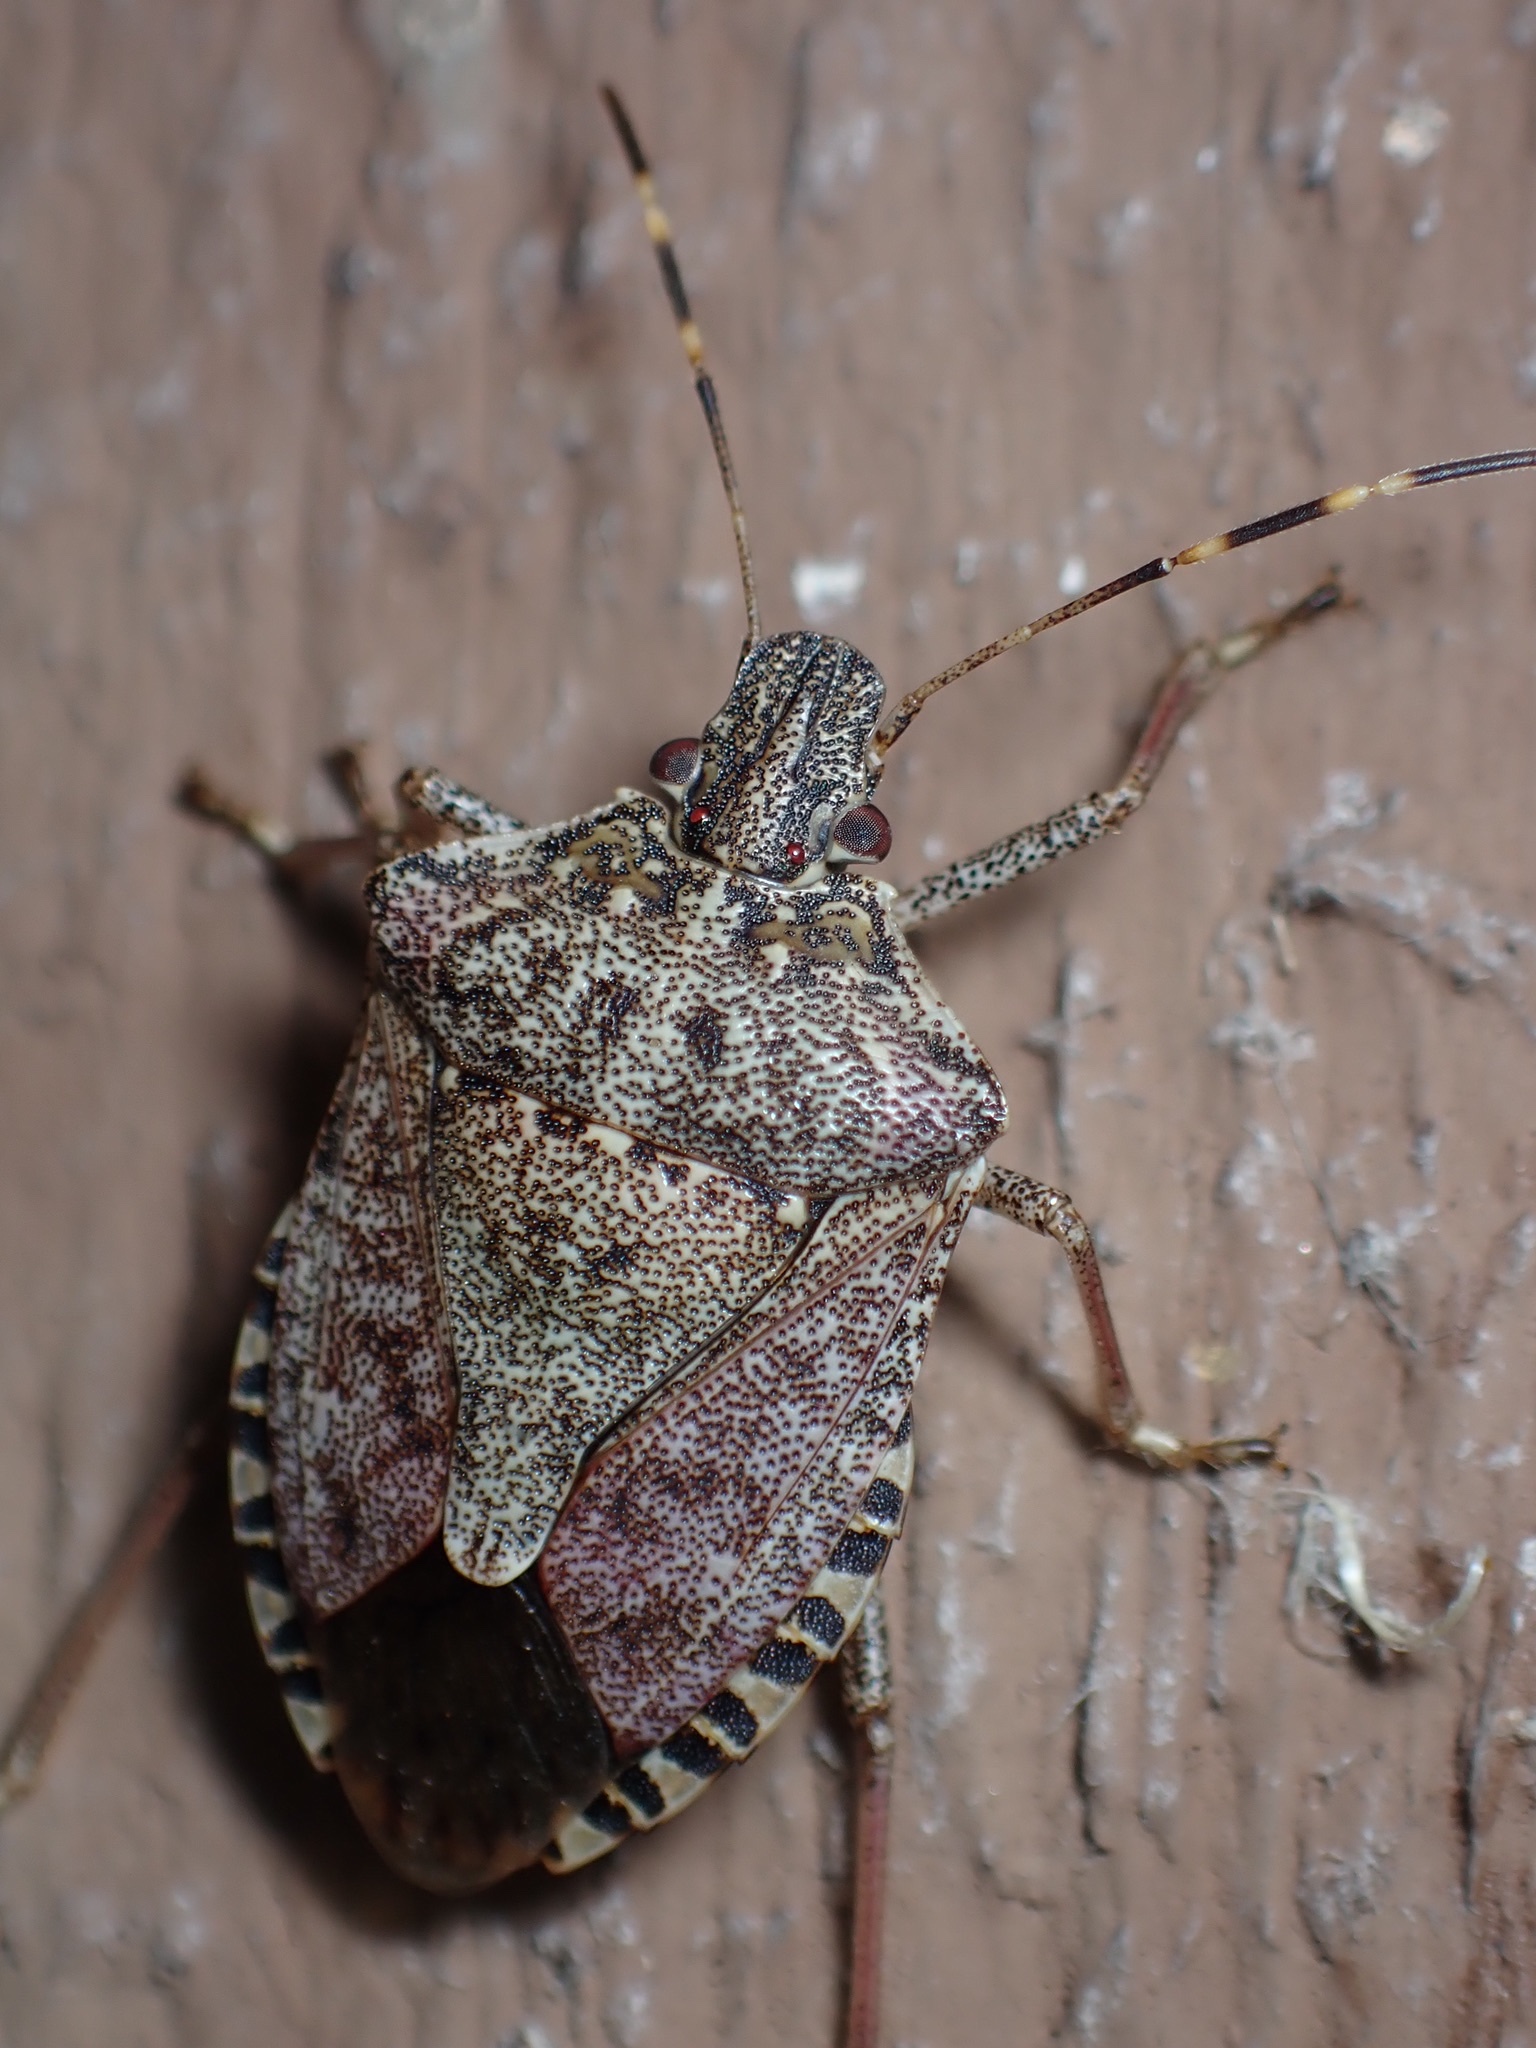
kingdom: Animalia
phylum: Arthropoda
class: Insecta
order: Hemiptera
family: Pentatomidae
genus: Halyomorpha
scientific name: Halyomorpha halys
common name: Brown marmorated stink bug
